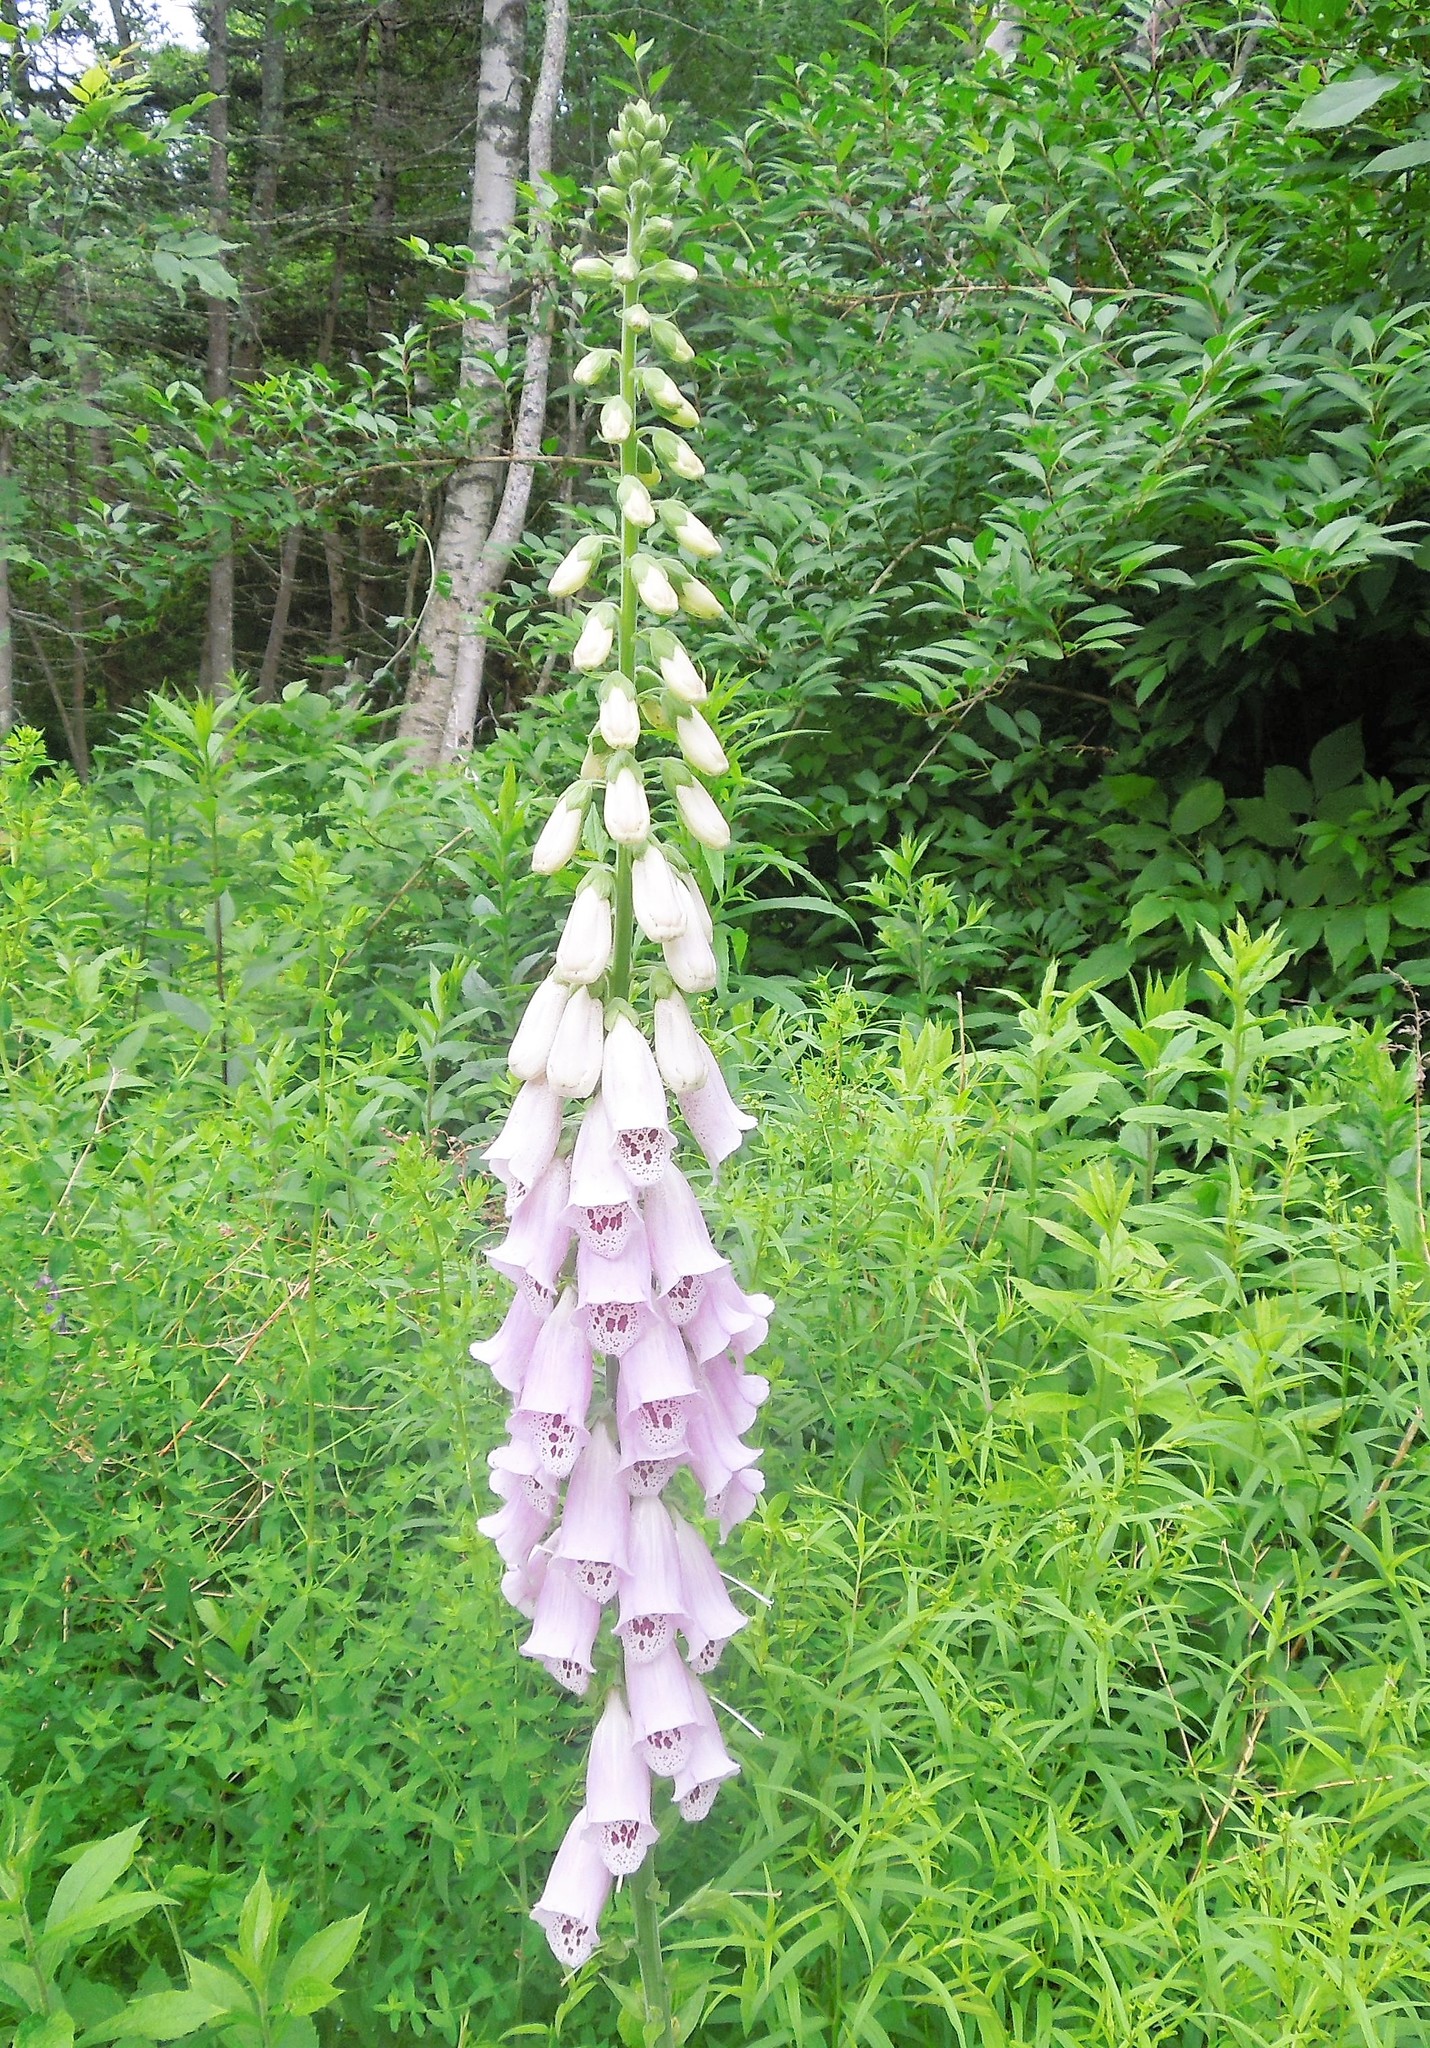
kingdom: Plantae
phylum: Tracheophyta
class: Magnoliopsida
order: Lamiales
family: Plantaginaceae
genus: Digitalis
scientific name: Digitalis purpurea
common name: Foxglove
